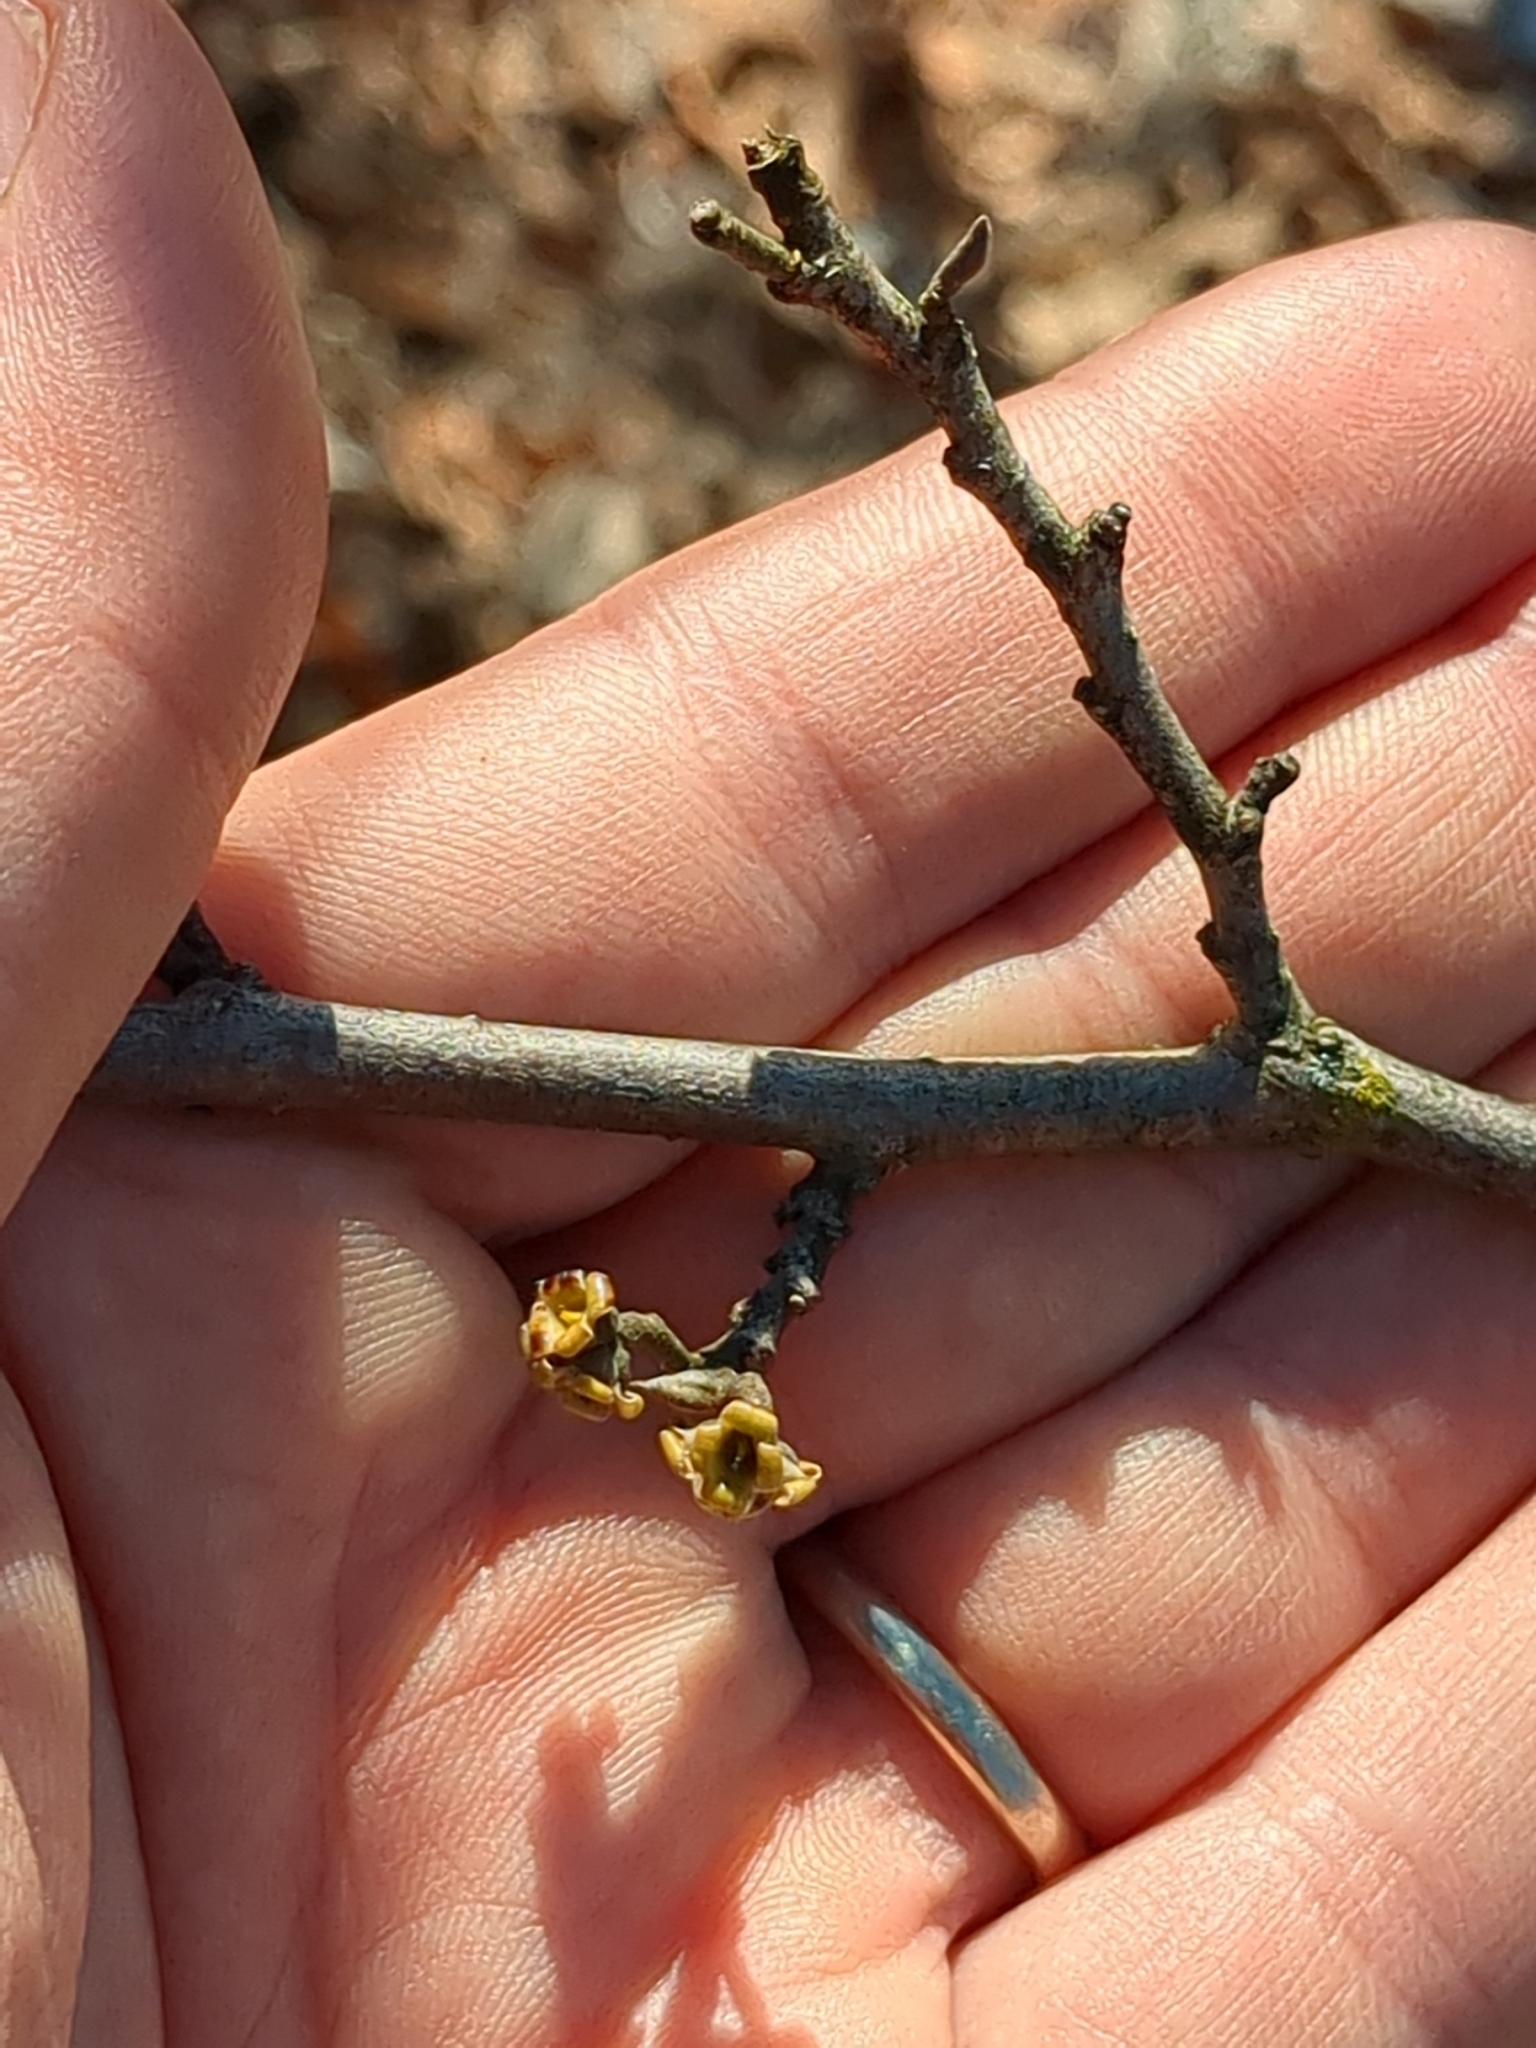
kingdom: Plantae
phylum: Tracheophyta
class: Magnoliopsida
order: Saxifragales
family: Hamamelidaceae
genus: Hamamelis
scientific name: Hamamelis virginiana
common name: Witch-hazel
